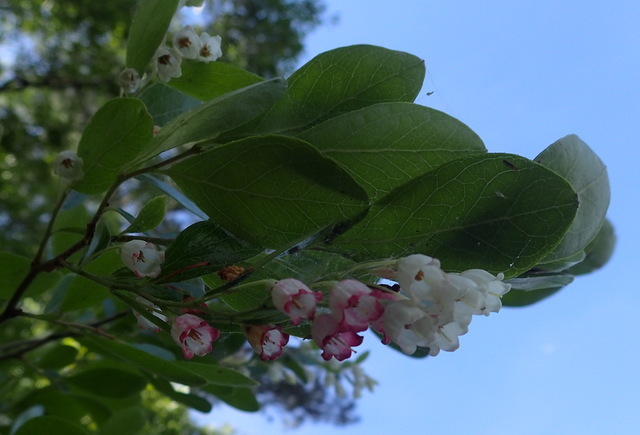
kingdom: Plantae
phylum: Tracheophyta
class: Magnoliopsida
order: Ericales
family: Ericaceae
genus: Vaccinium
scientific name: Vaccinium arboreum
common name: Farkleberry
